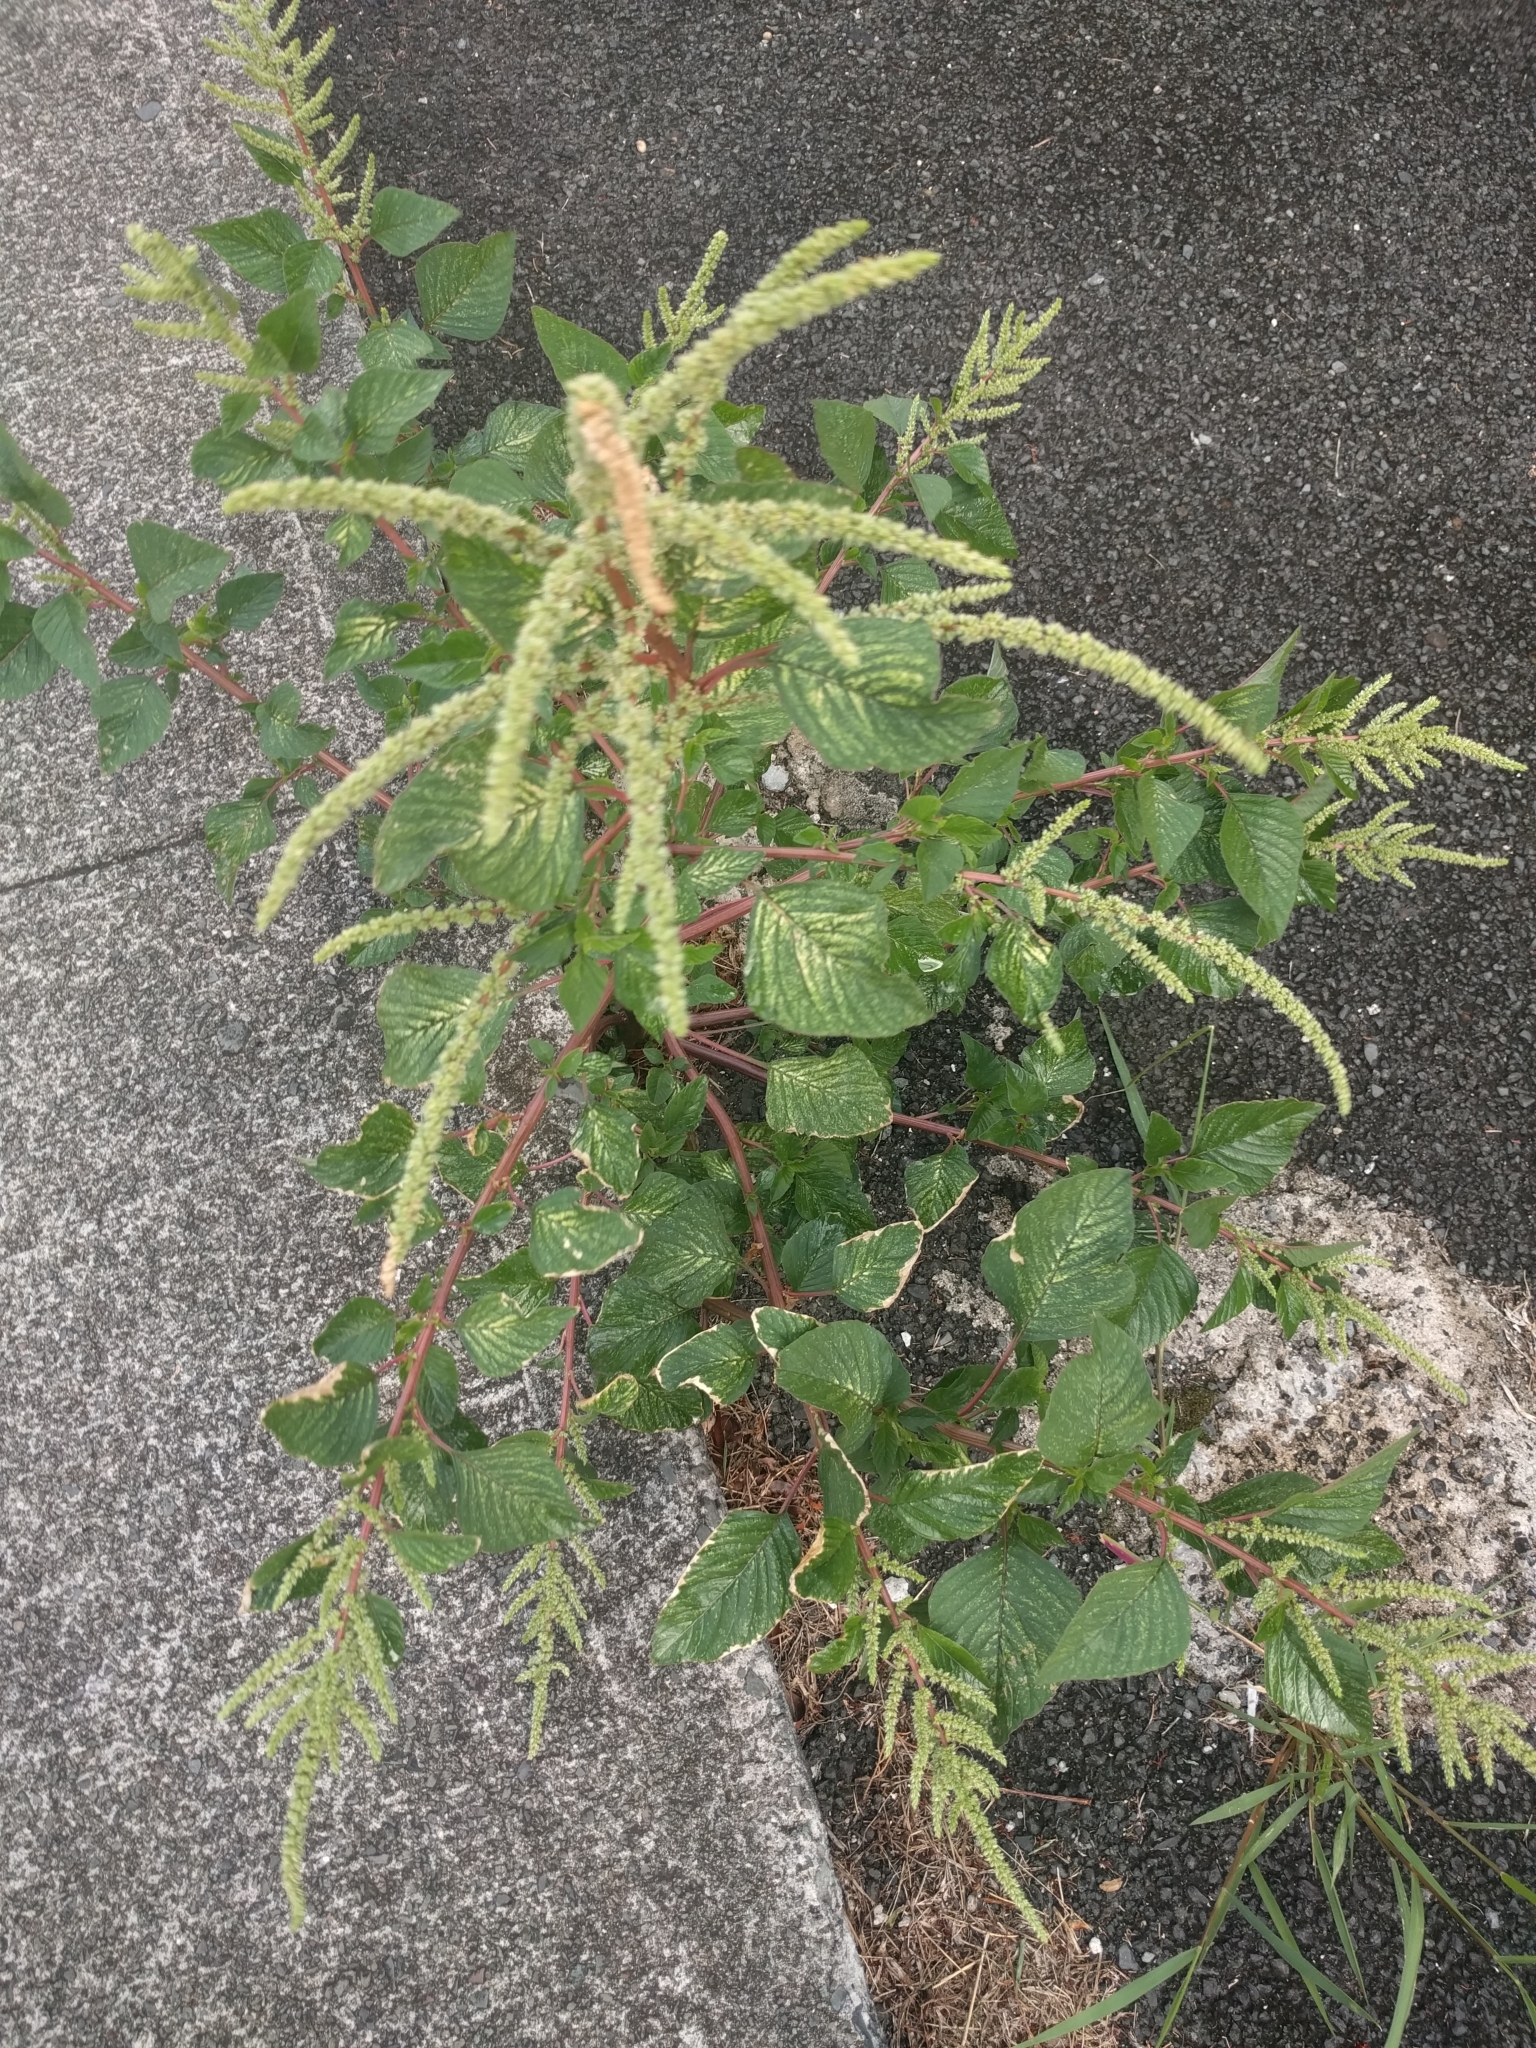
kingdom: Plantae
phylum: Tracheophyta
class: Magnoliopsida
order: Caryophyllales
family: Amaranthaceae
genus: Amaranthus
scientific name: Amaranthus retroflexus
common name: Redroot amaranth
